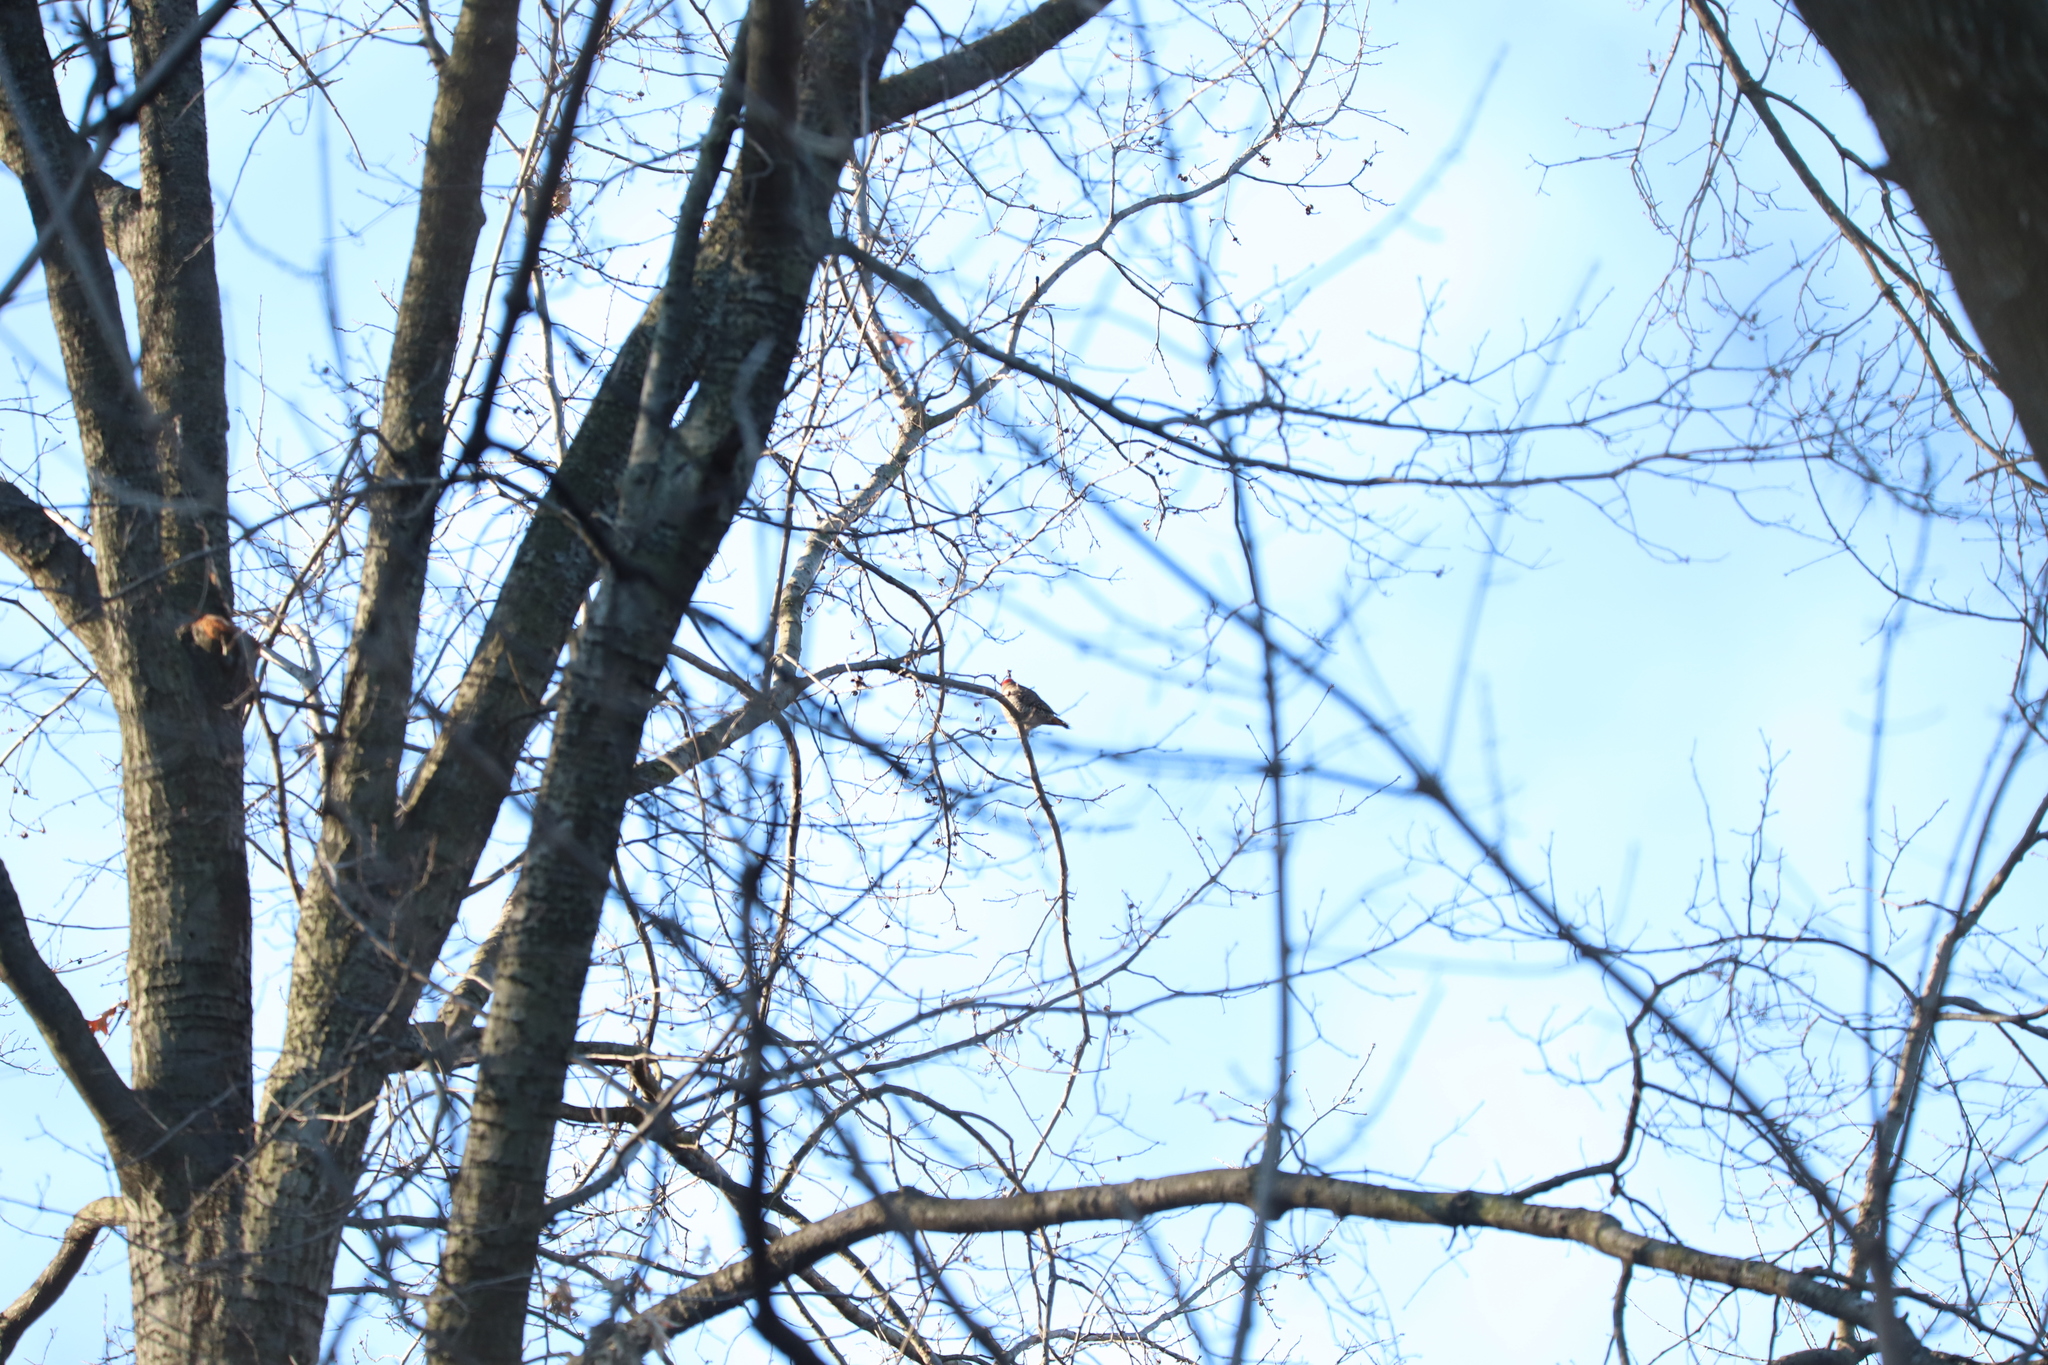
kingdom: Animalia
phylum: Chordata
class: Aves
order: Piciformes
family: Picidae
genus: Colaptes
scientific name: Colaptes auratus
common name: Northern flicker
